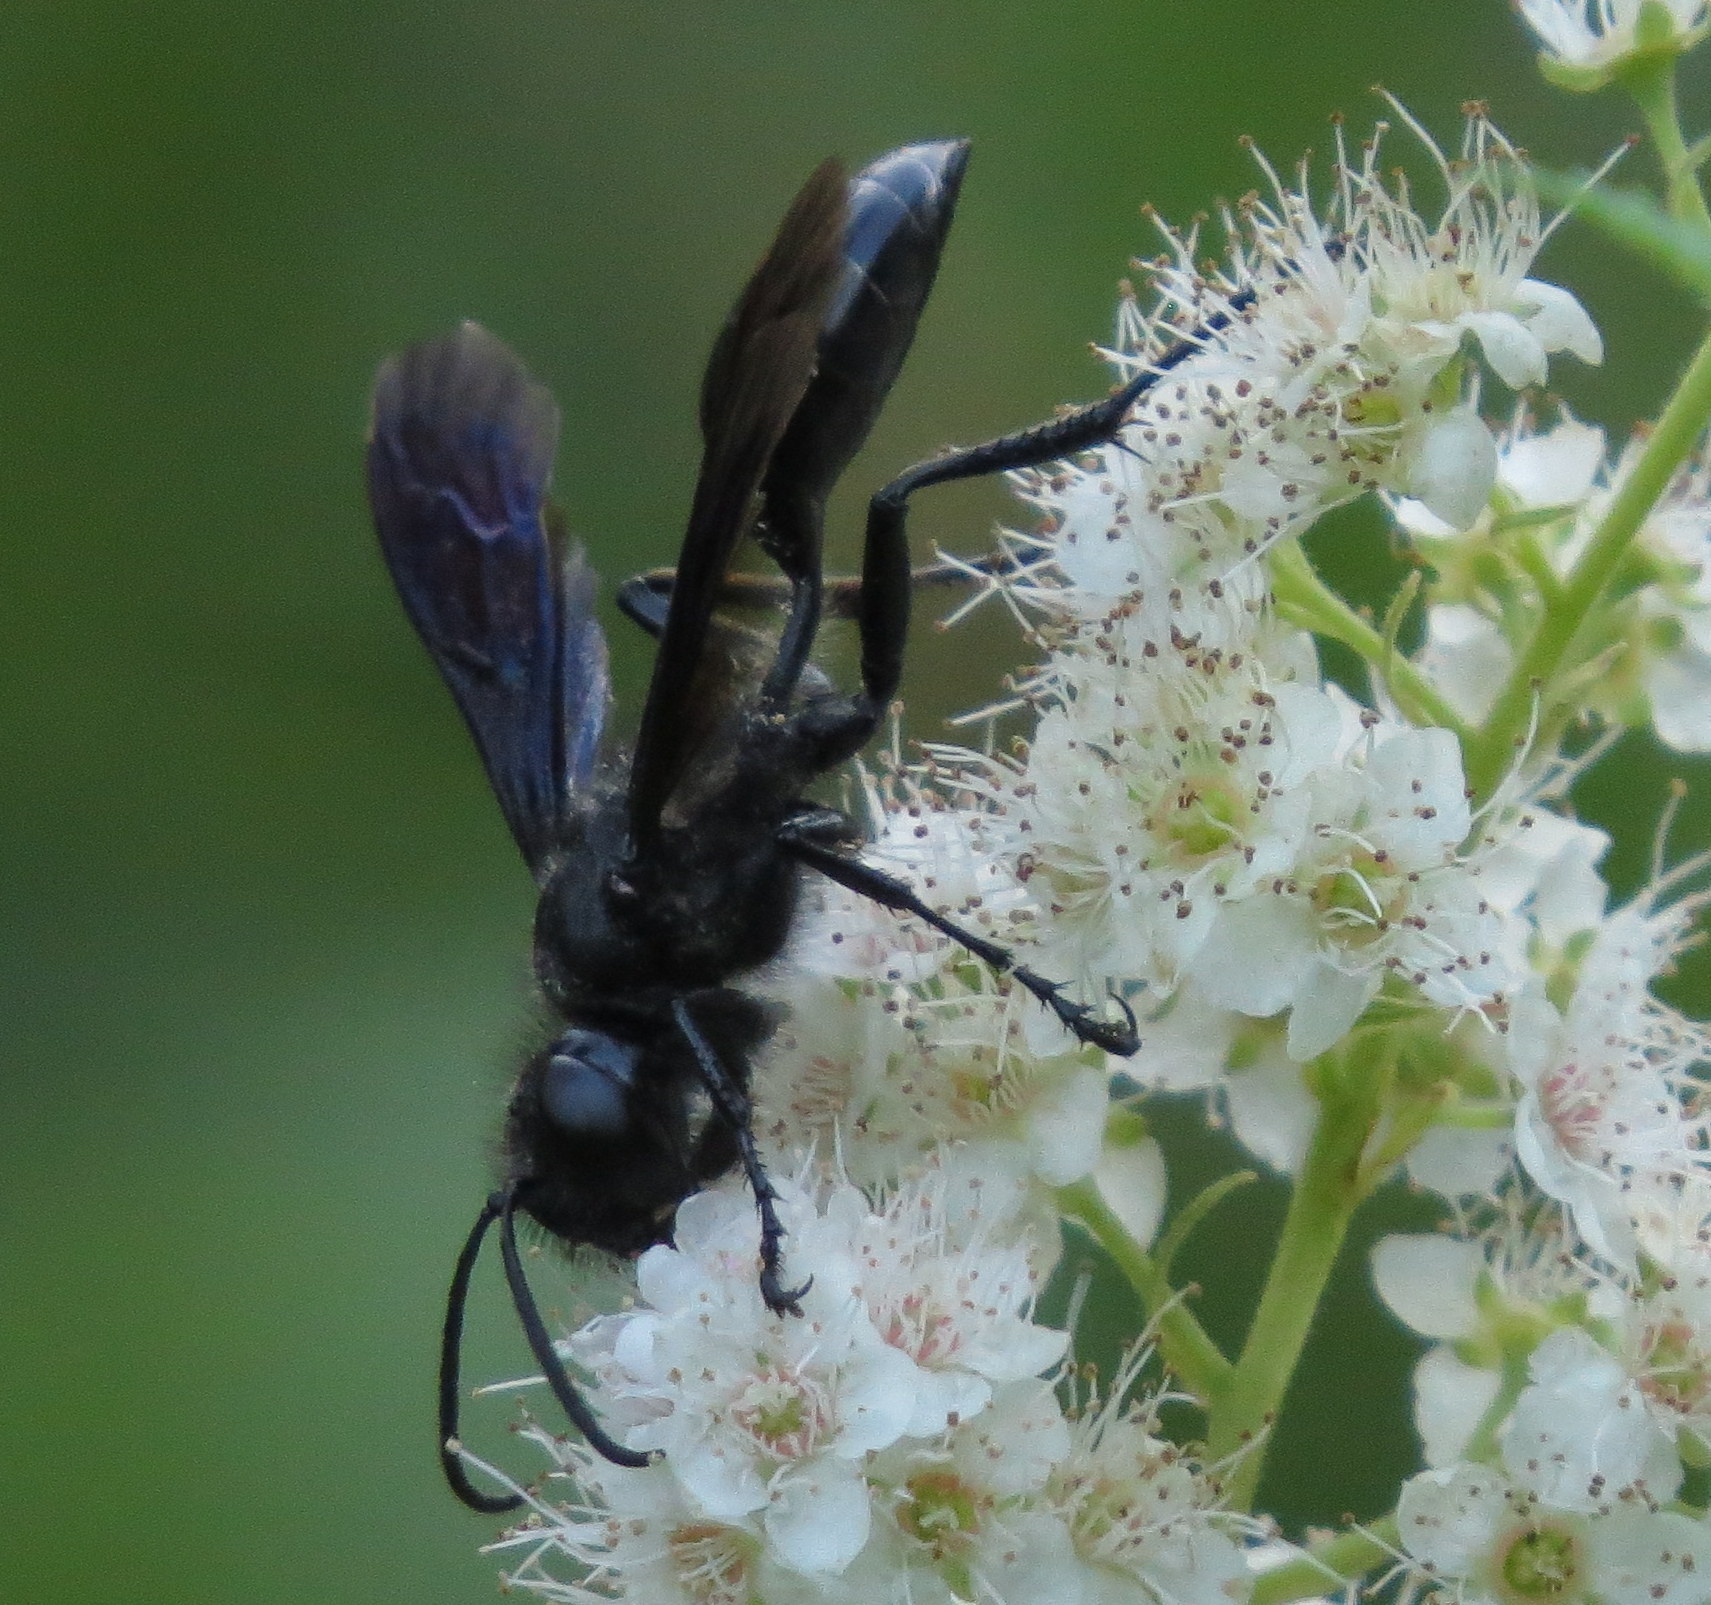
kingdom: Animalia
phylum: Arthropoda
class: Insecta
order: Hymenoptera
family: Sphecidae
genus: Isodontia
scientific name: Isodontia philadelphica
